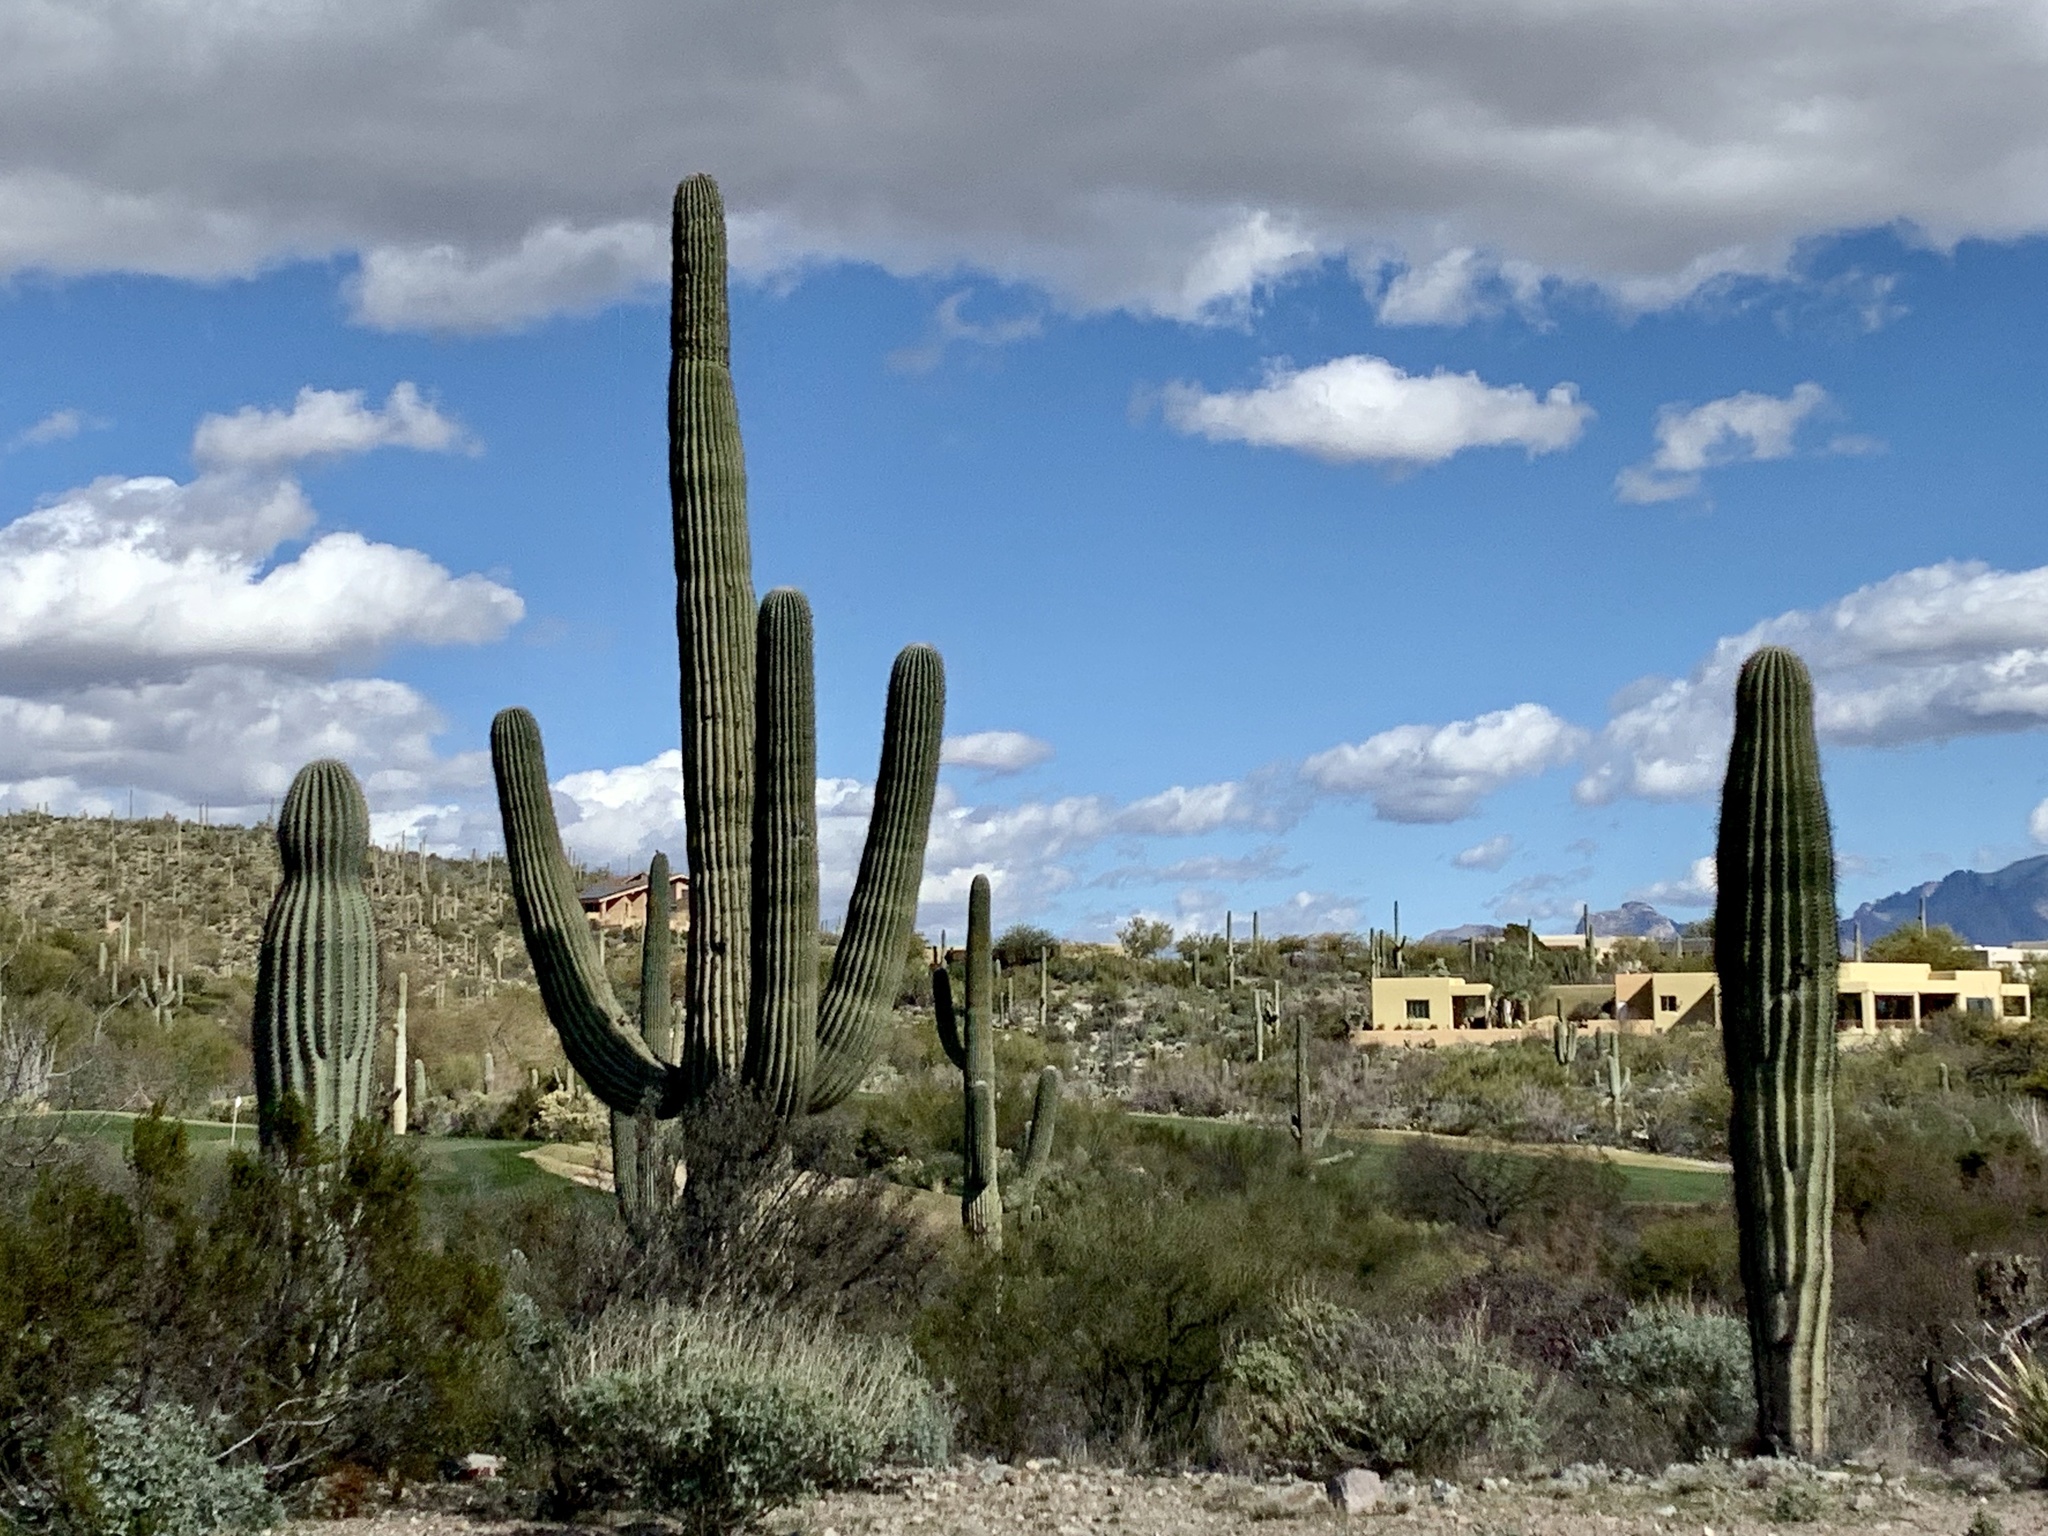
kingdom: Plantae
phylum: Tracheophyta
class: Magnoliopsida
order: Caryophyllales
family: Cactaceae
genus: Carnegiea
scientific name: Carnegiea gigantea
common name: Saguaro
